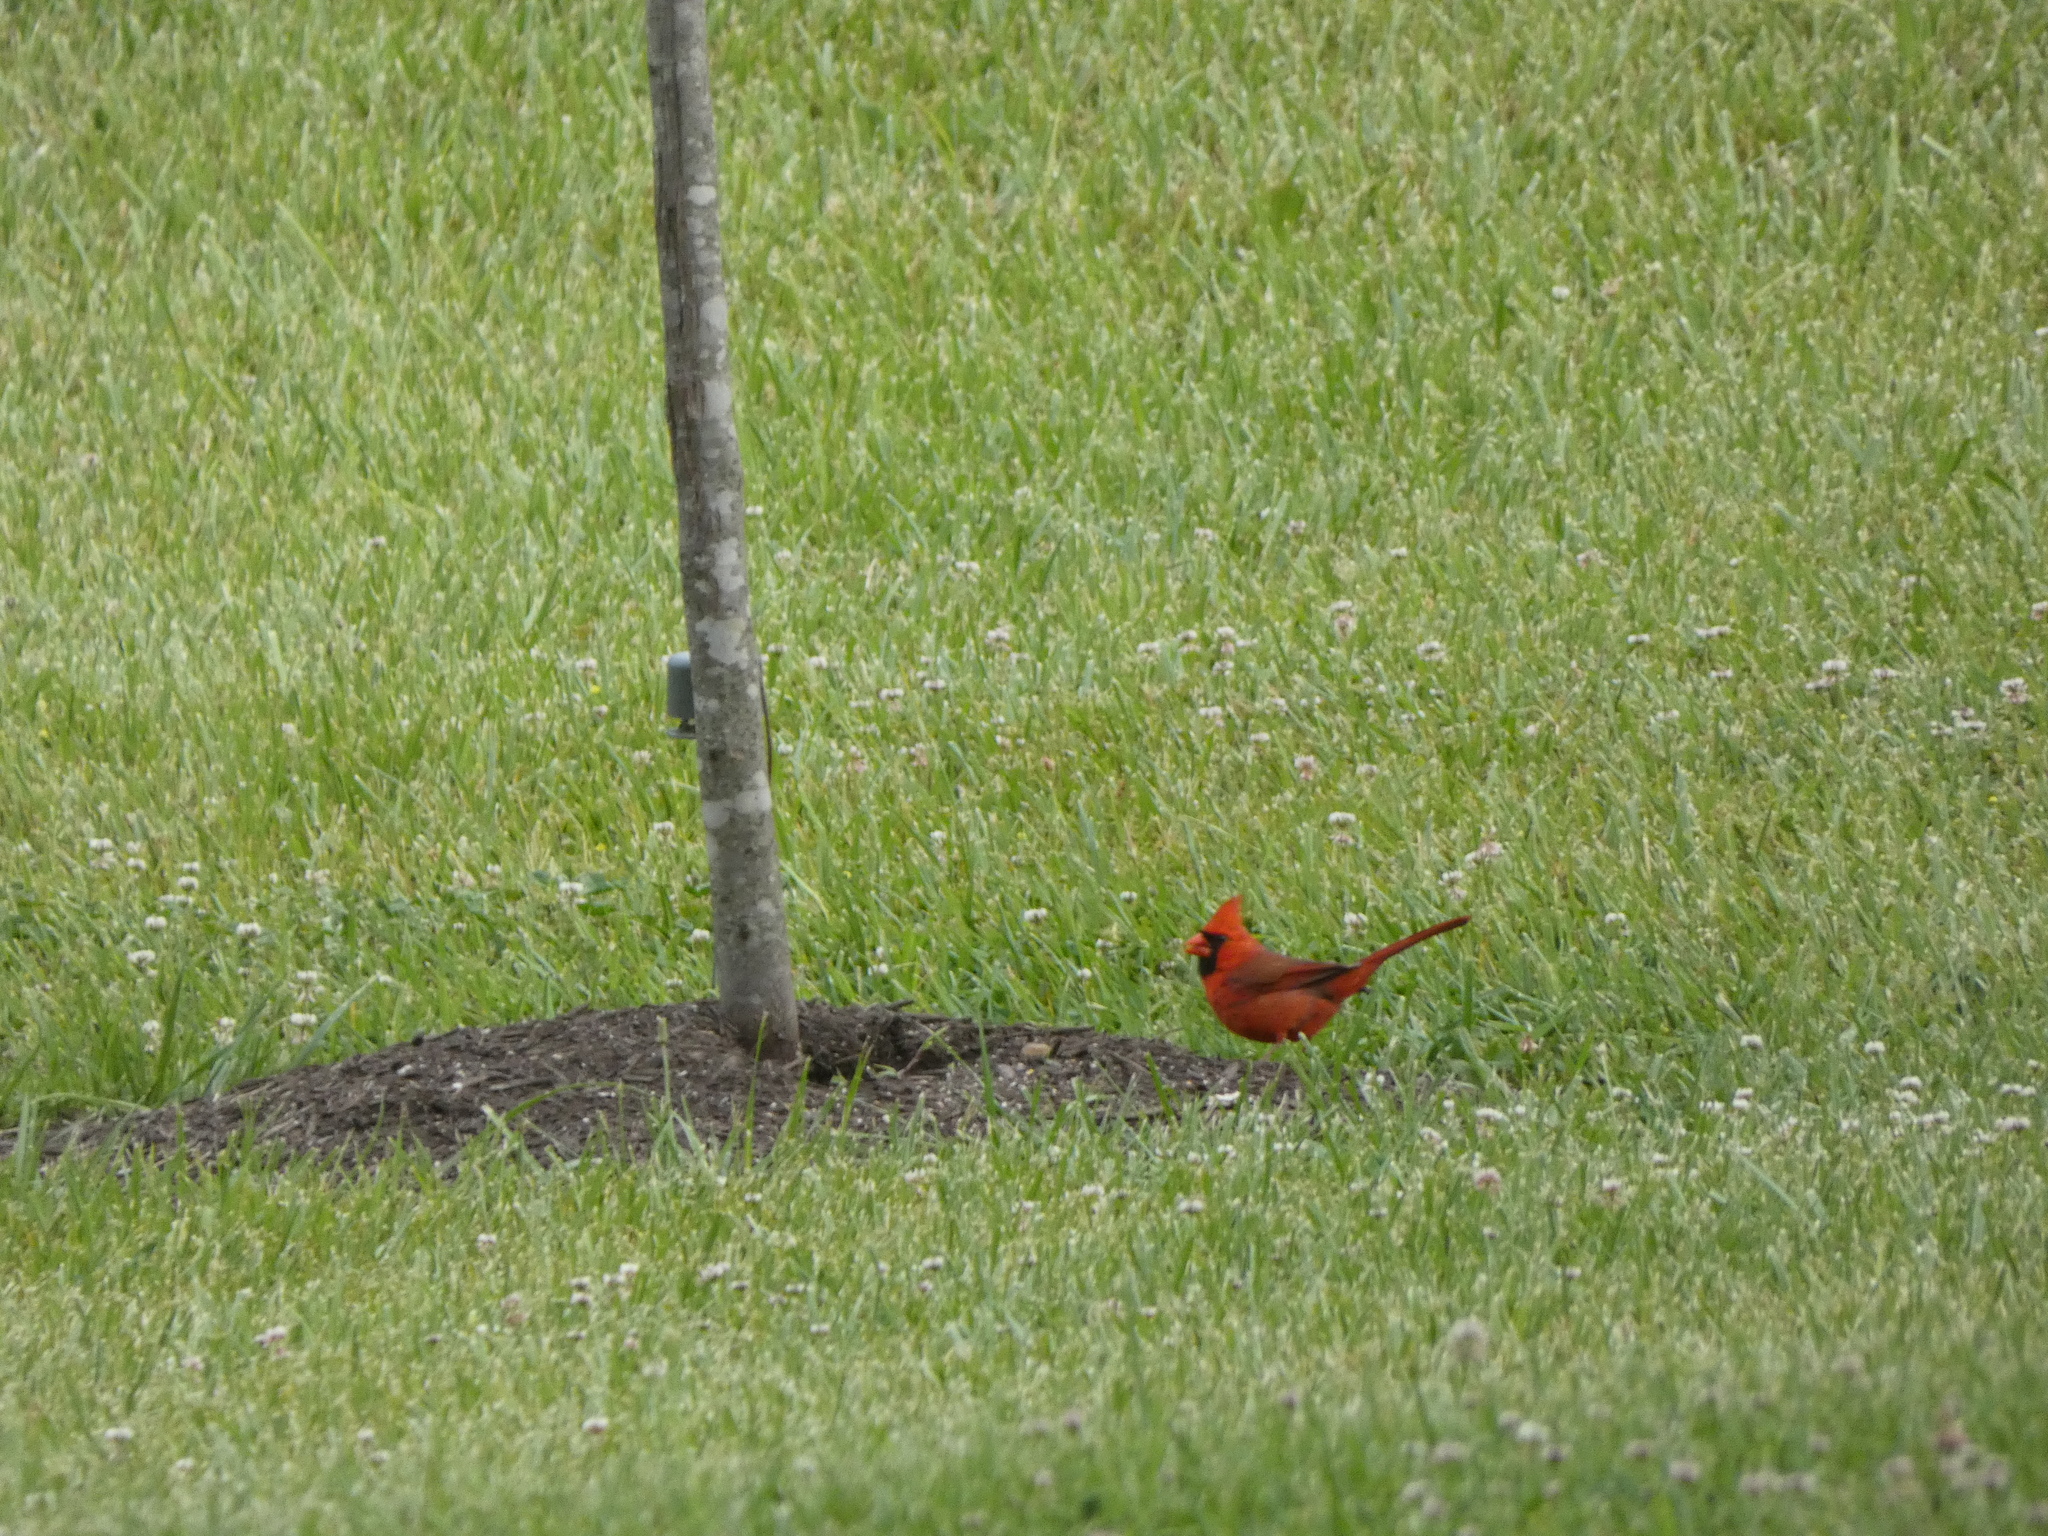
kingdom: Animalia
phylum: Chordata
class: Aves
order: Passeriformes
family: Cardinalidae
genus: Cardinalis
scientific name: Cardinalis cardinalis
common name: Northern cardinal
